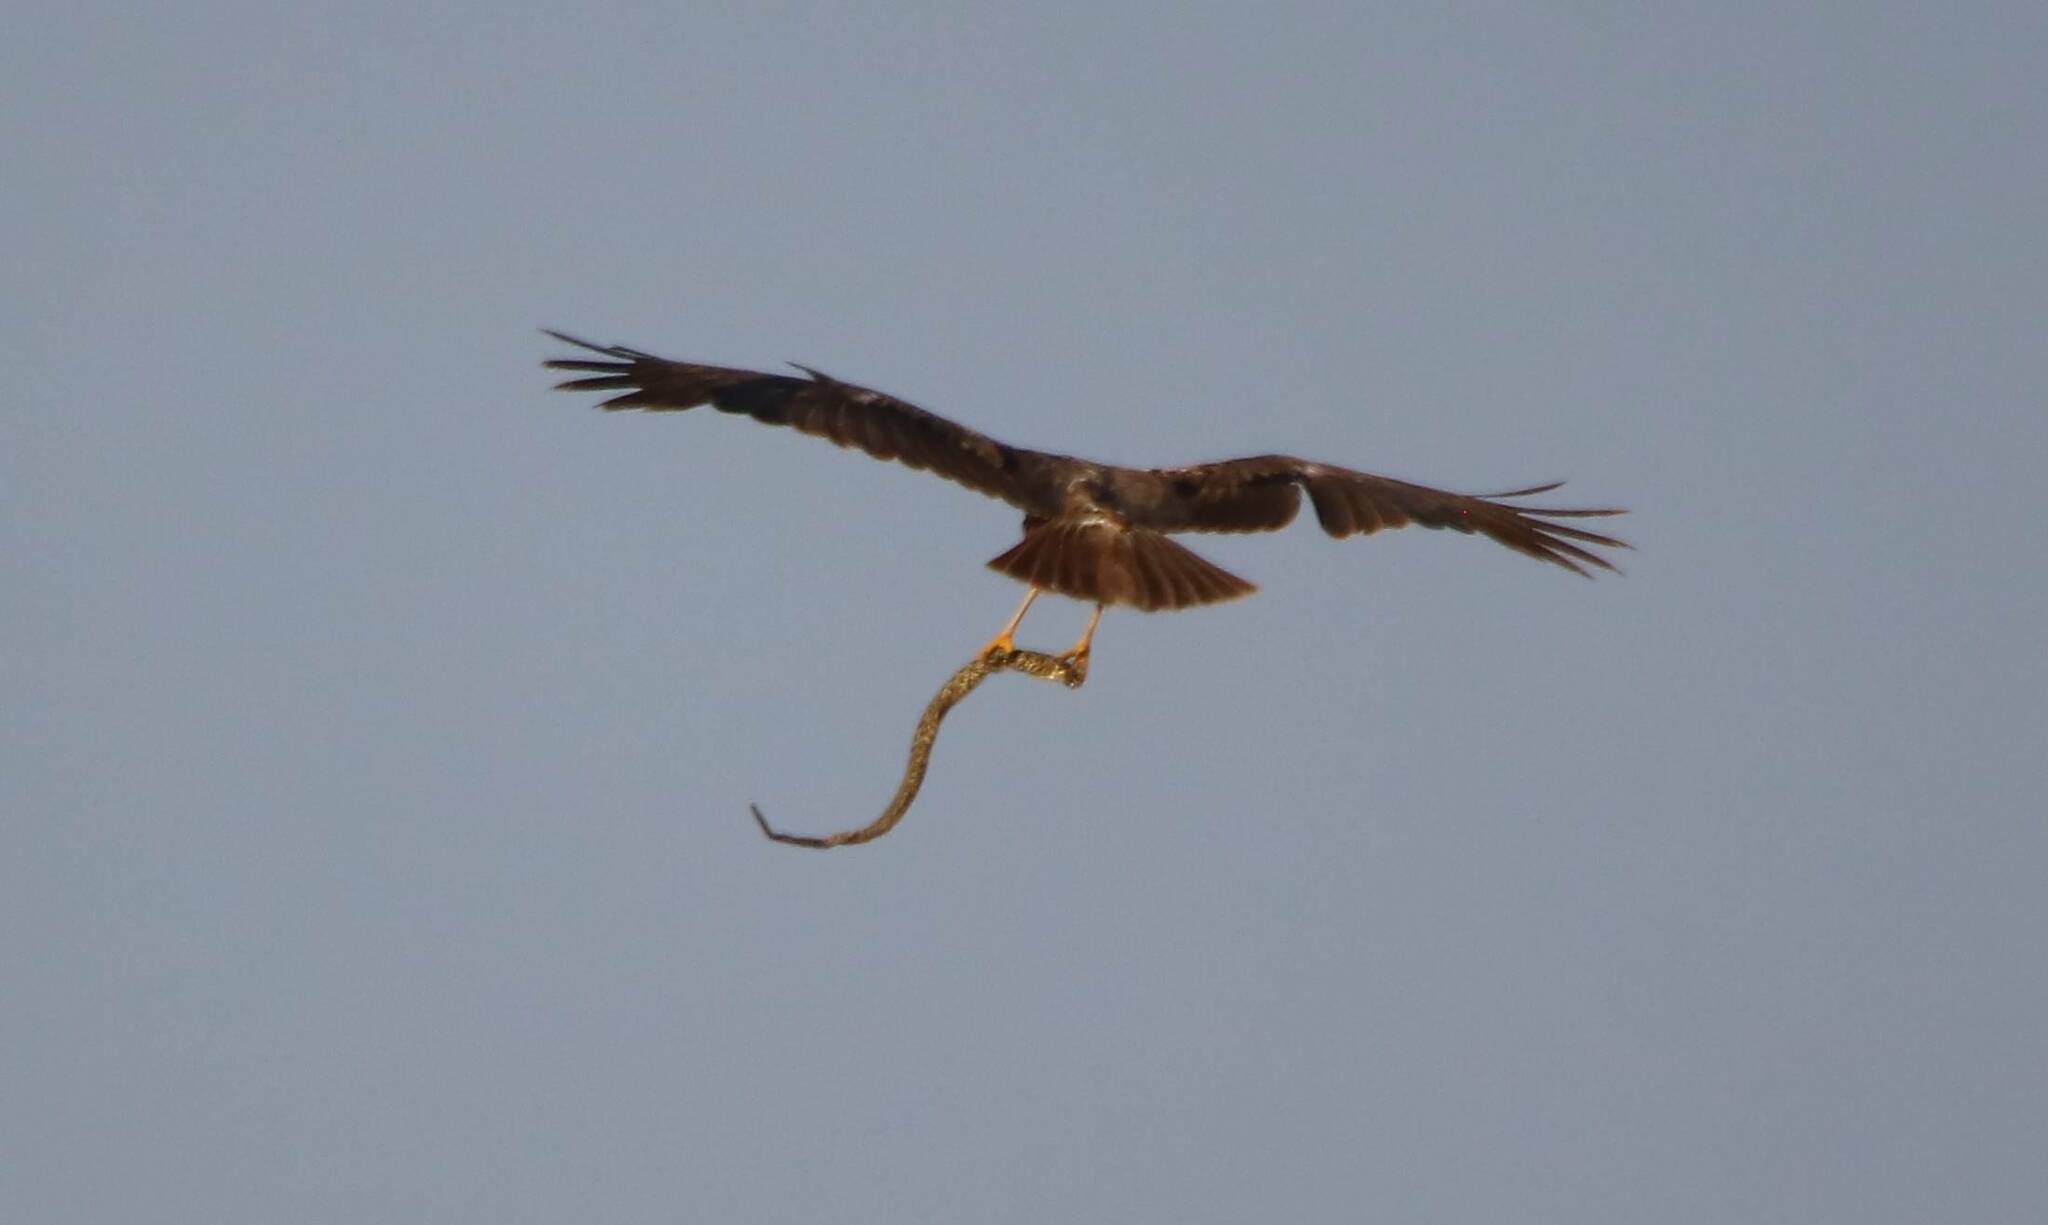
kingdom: Animalia
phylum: Chordata
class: Aves
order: Accipitriformes
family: Accipitridae
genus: Circus
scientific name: Circus aeruginosus
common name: Western marsh harrier
